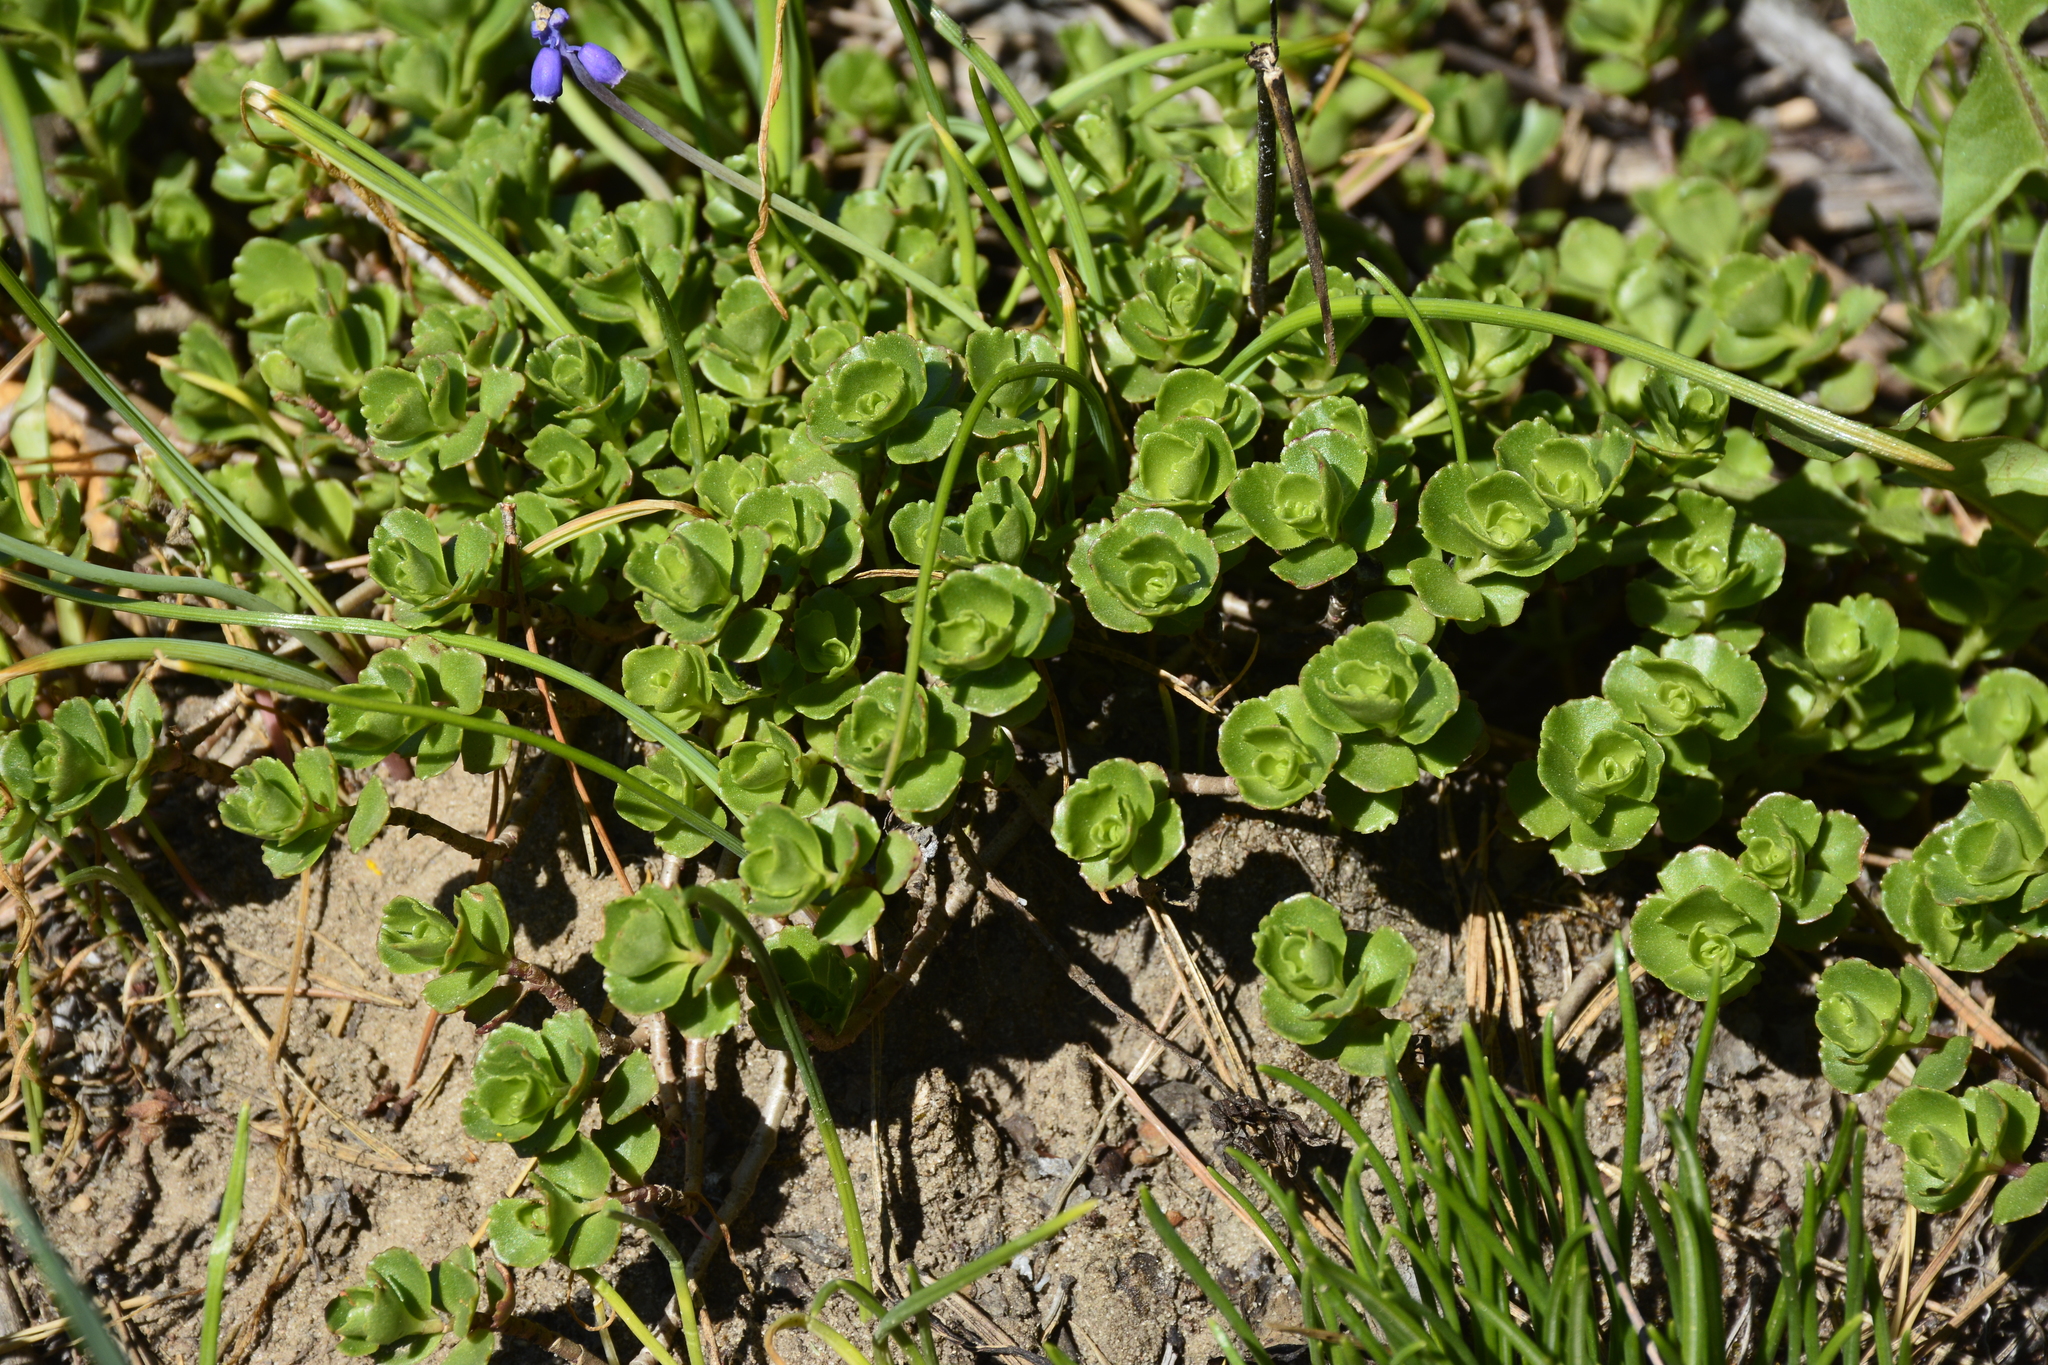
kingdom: Plantae
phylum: Tracheophyta
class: Magnoliopsida
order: Saxifragales
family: Crassulaceae
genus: Phedimus
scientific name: Phedimus spurius
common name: Caucasian stonecrop
